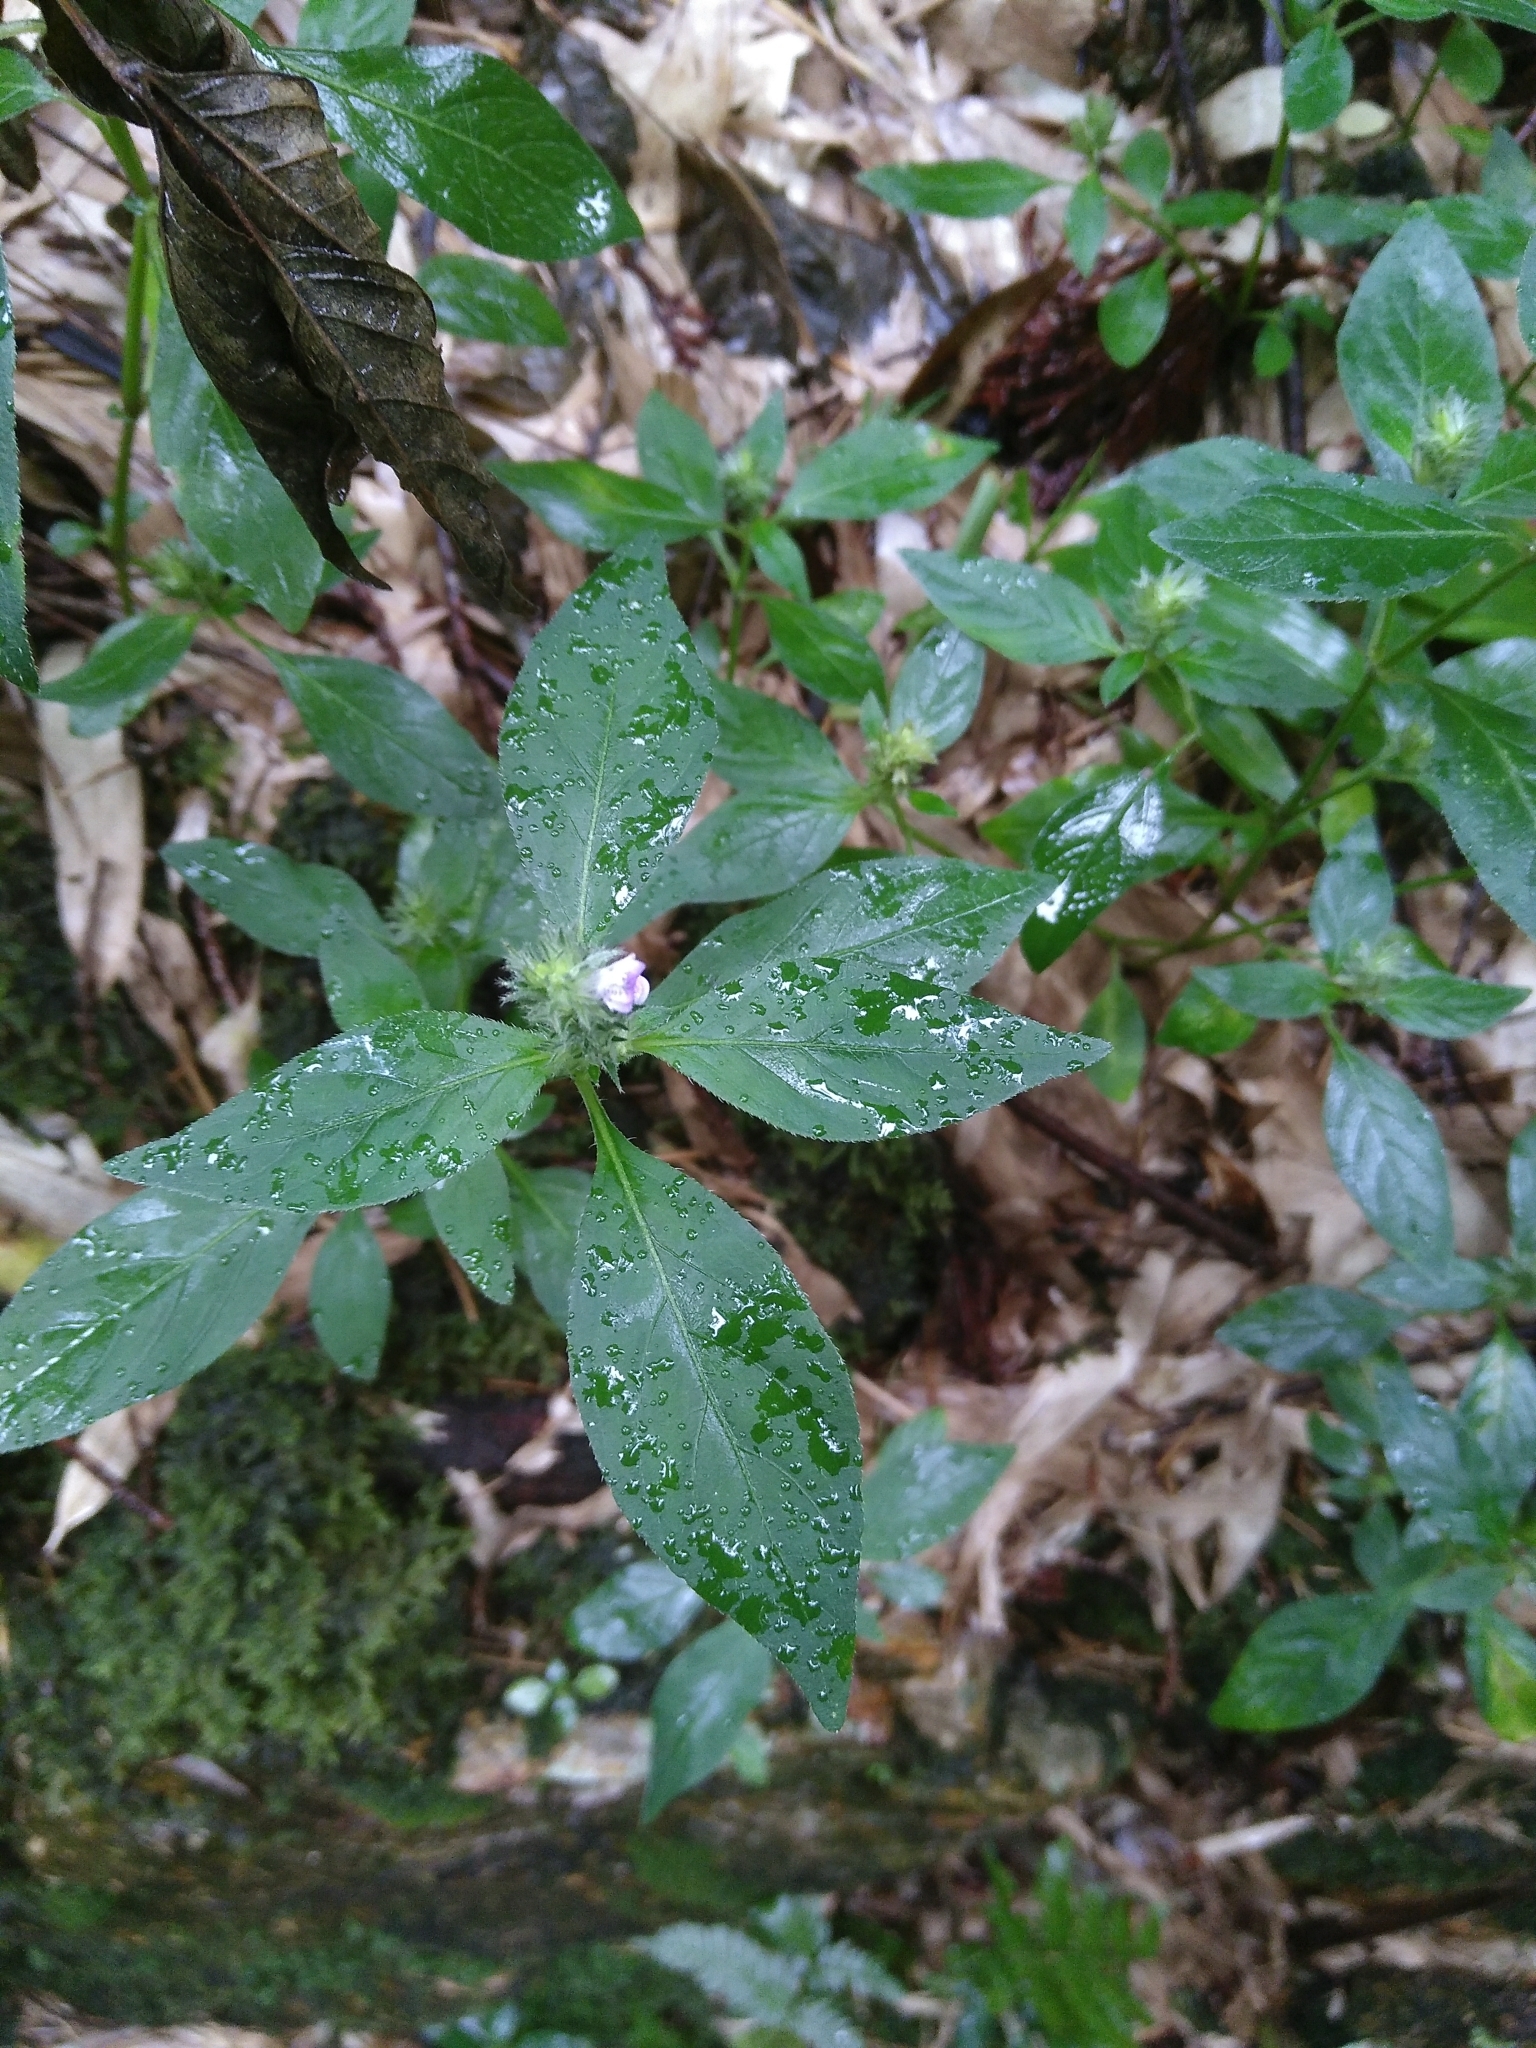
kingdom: Plantae
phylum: Tracheophyta
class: Magnoliopsida
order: Lamiales
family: Acanthaceae
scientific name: Acanthaceae
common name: Acanthaceae
